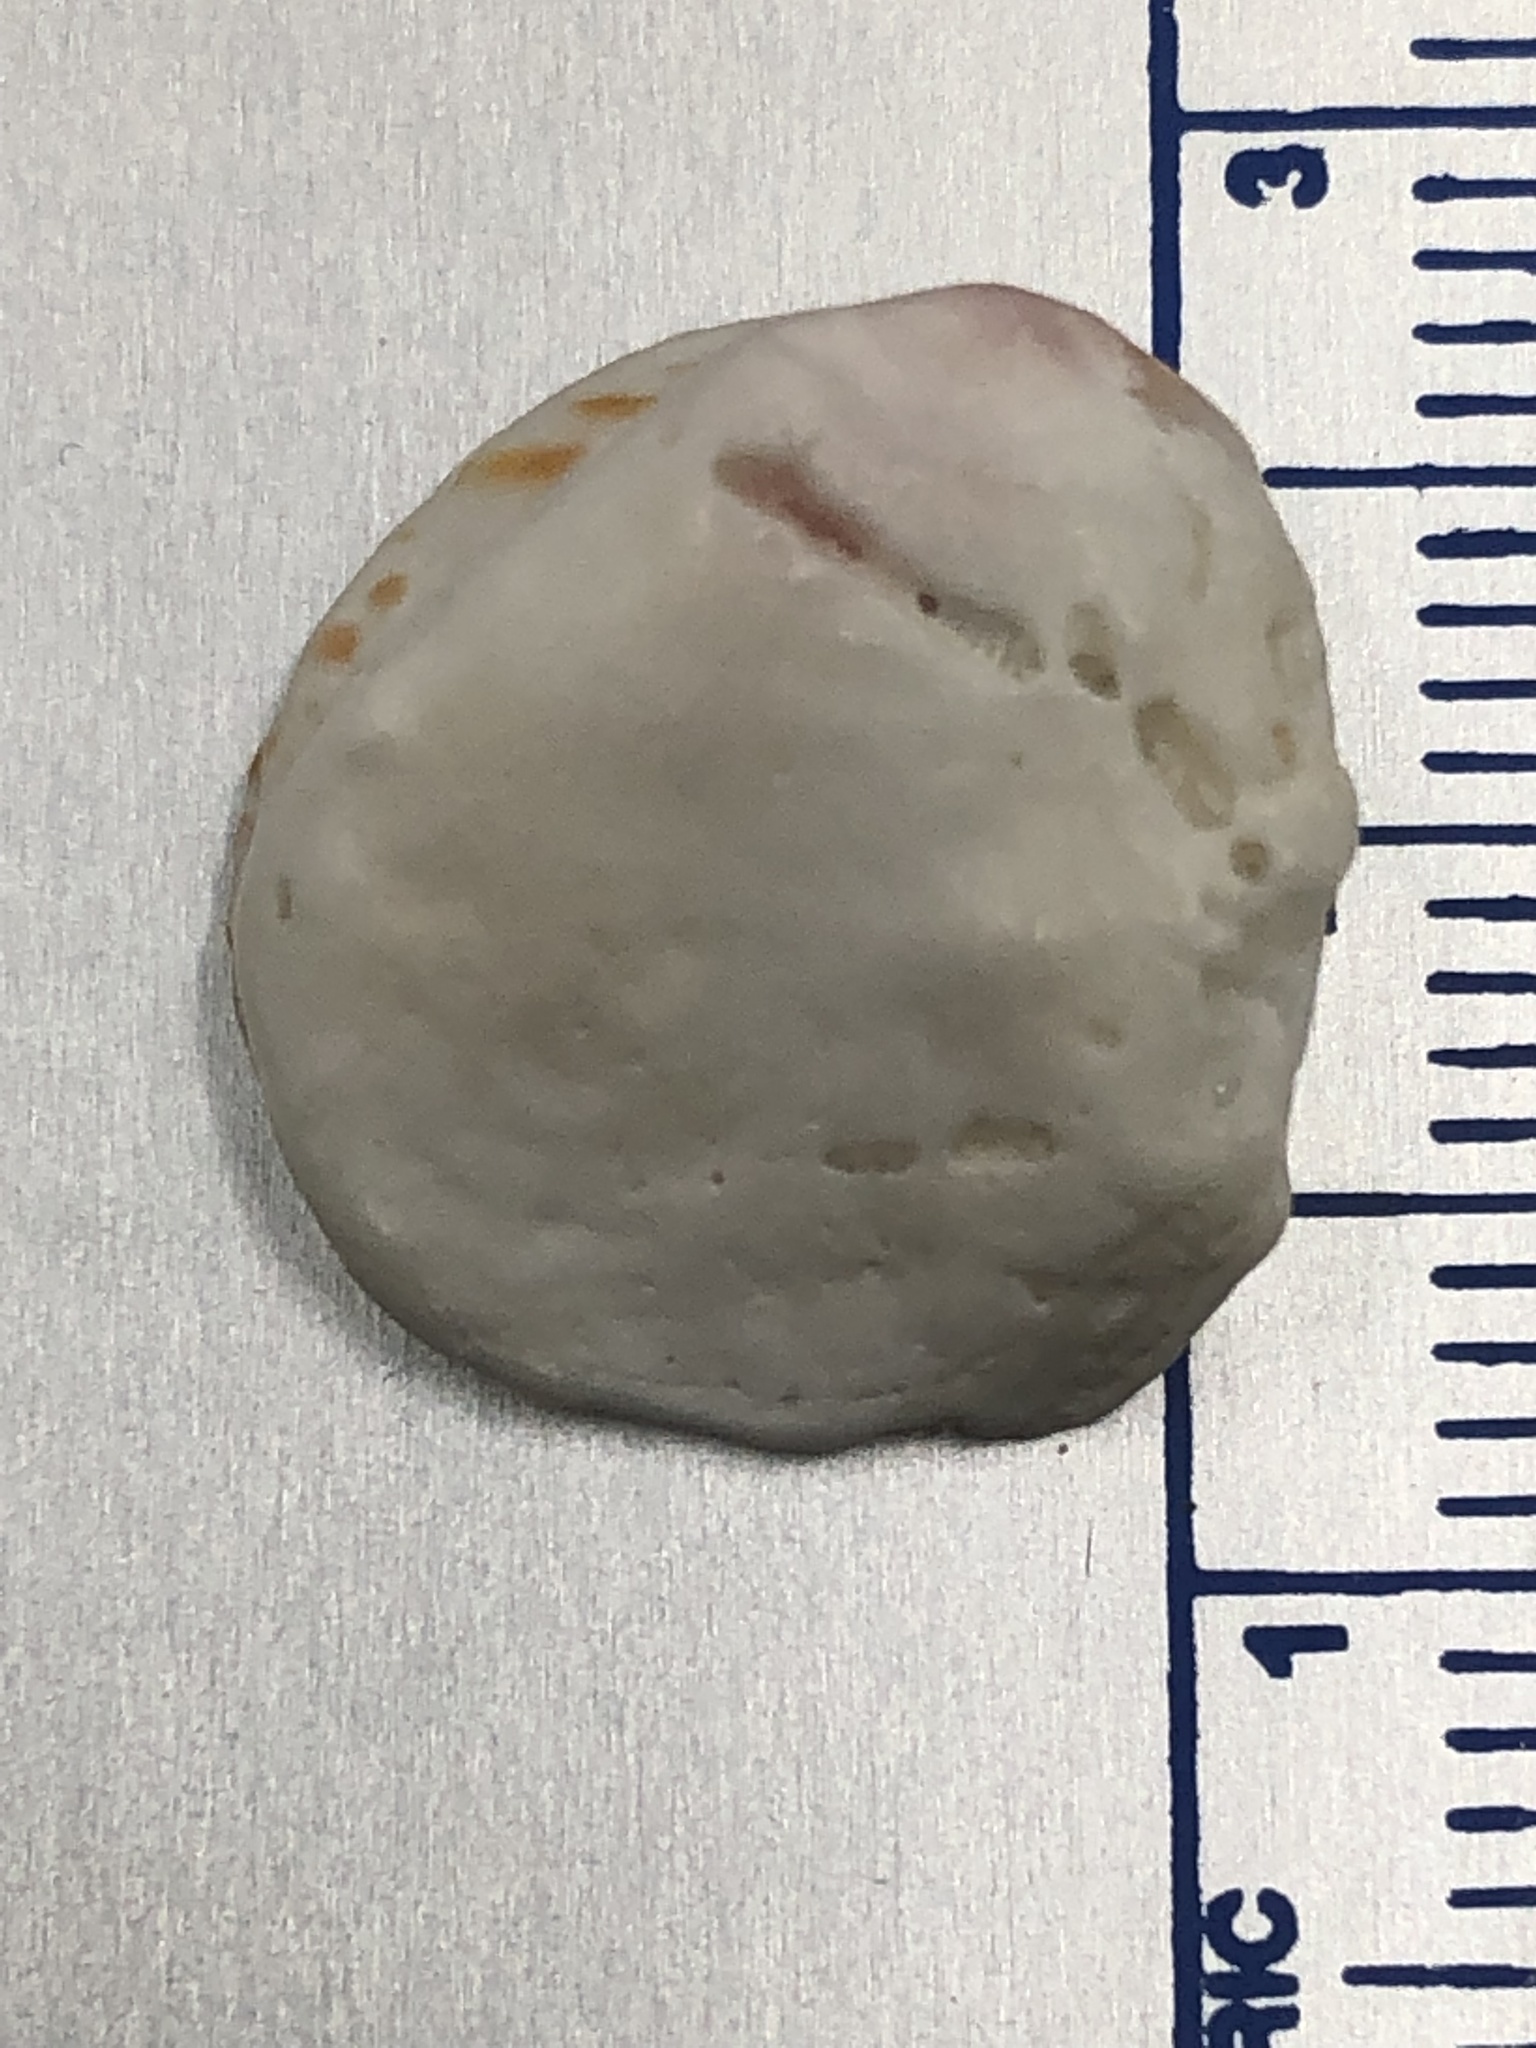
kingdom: Animalia
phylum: Mollusca
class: Bivalvia
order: Venerida
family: Chamidae
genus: Chama
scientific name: Chama congregata
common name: Corrugate jewelbox
